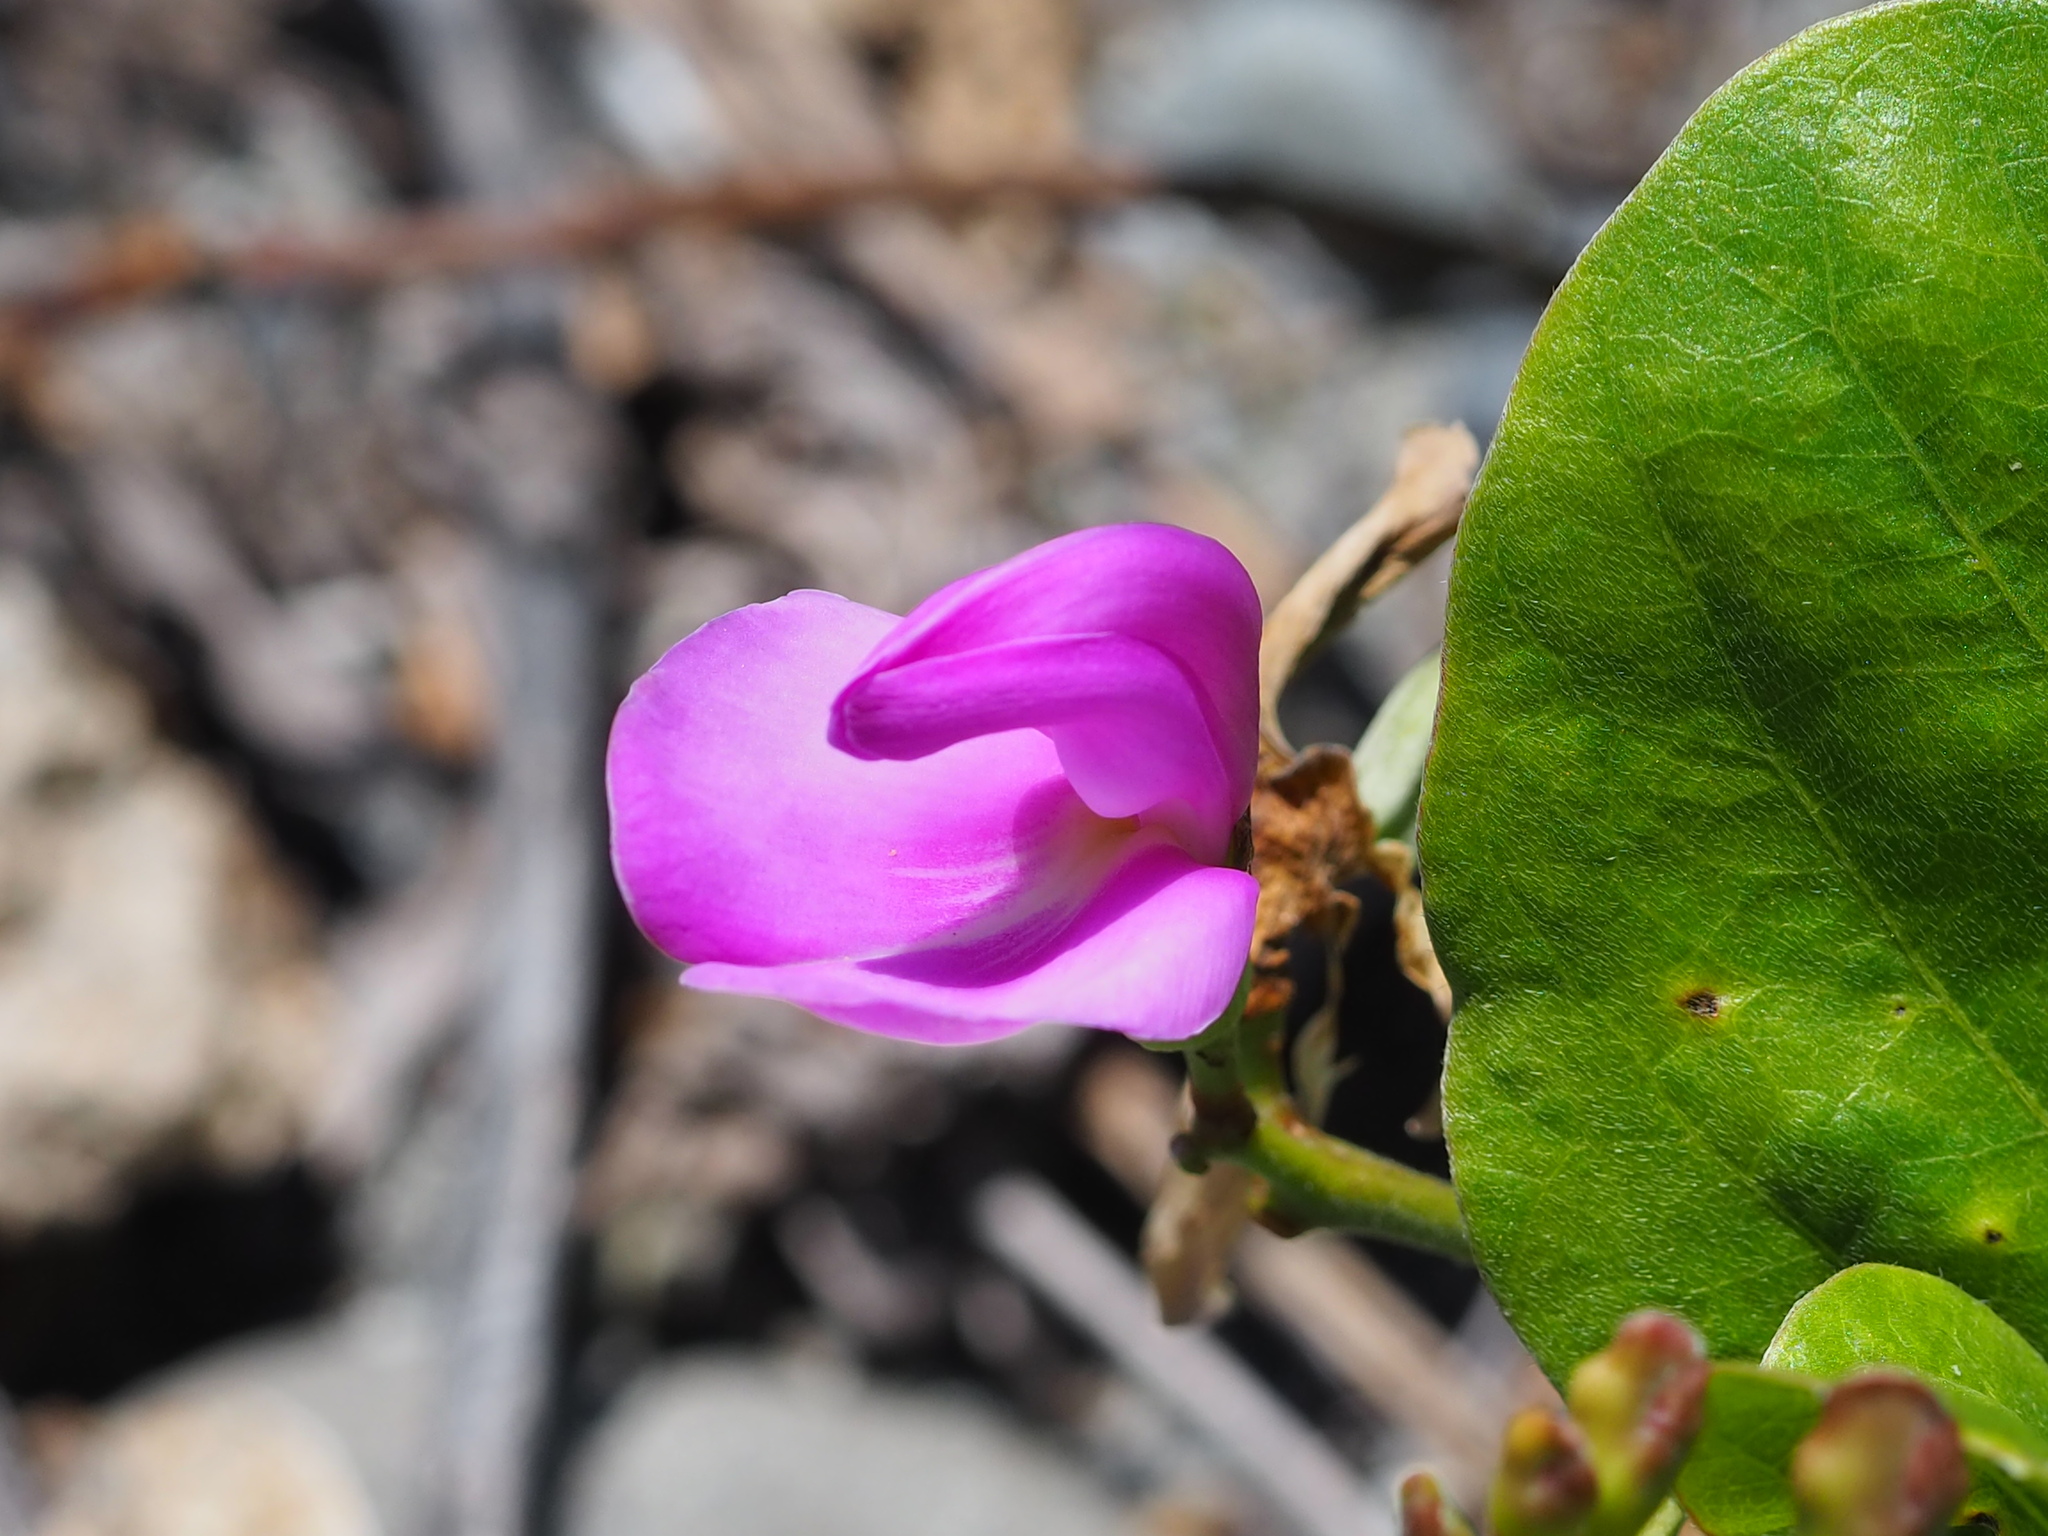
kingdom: Plantae
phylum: Tracheophyta
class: Magnoliopsida
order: Fabales
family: Fabaceae
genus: Canavalia
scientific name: Canavalia rosea
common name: Beach-bean
